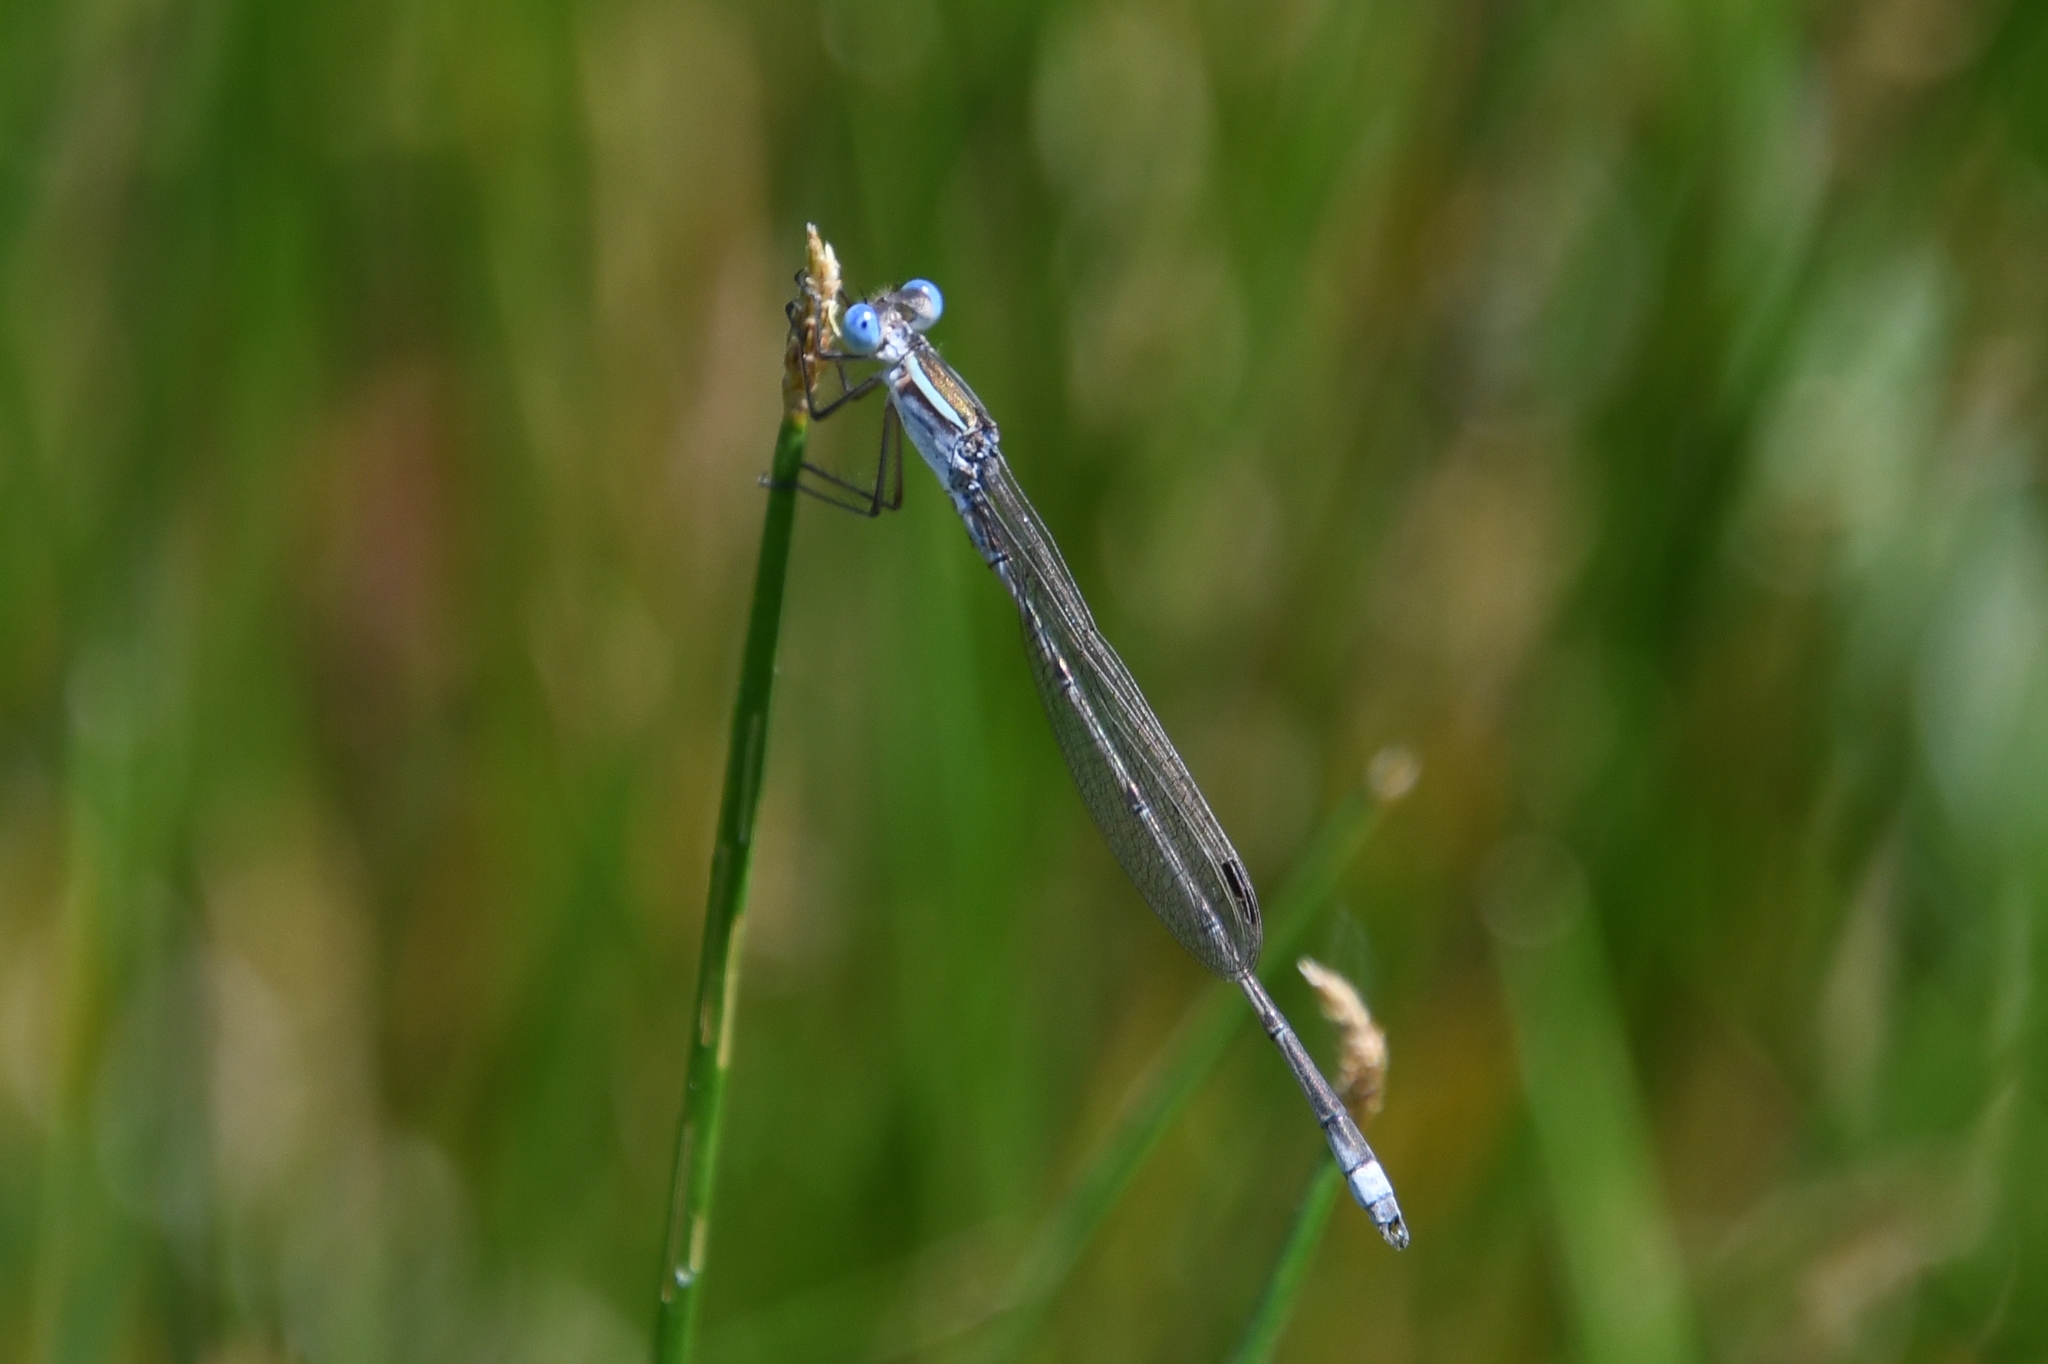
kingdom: Animalia
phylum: Arthropoda
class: Insecta
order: Odonata
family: Lestidae
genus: Lestes
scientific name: Lestes alacer
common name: Plateau spreadwing
